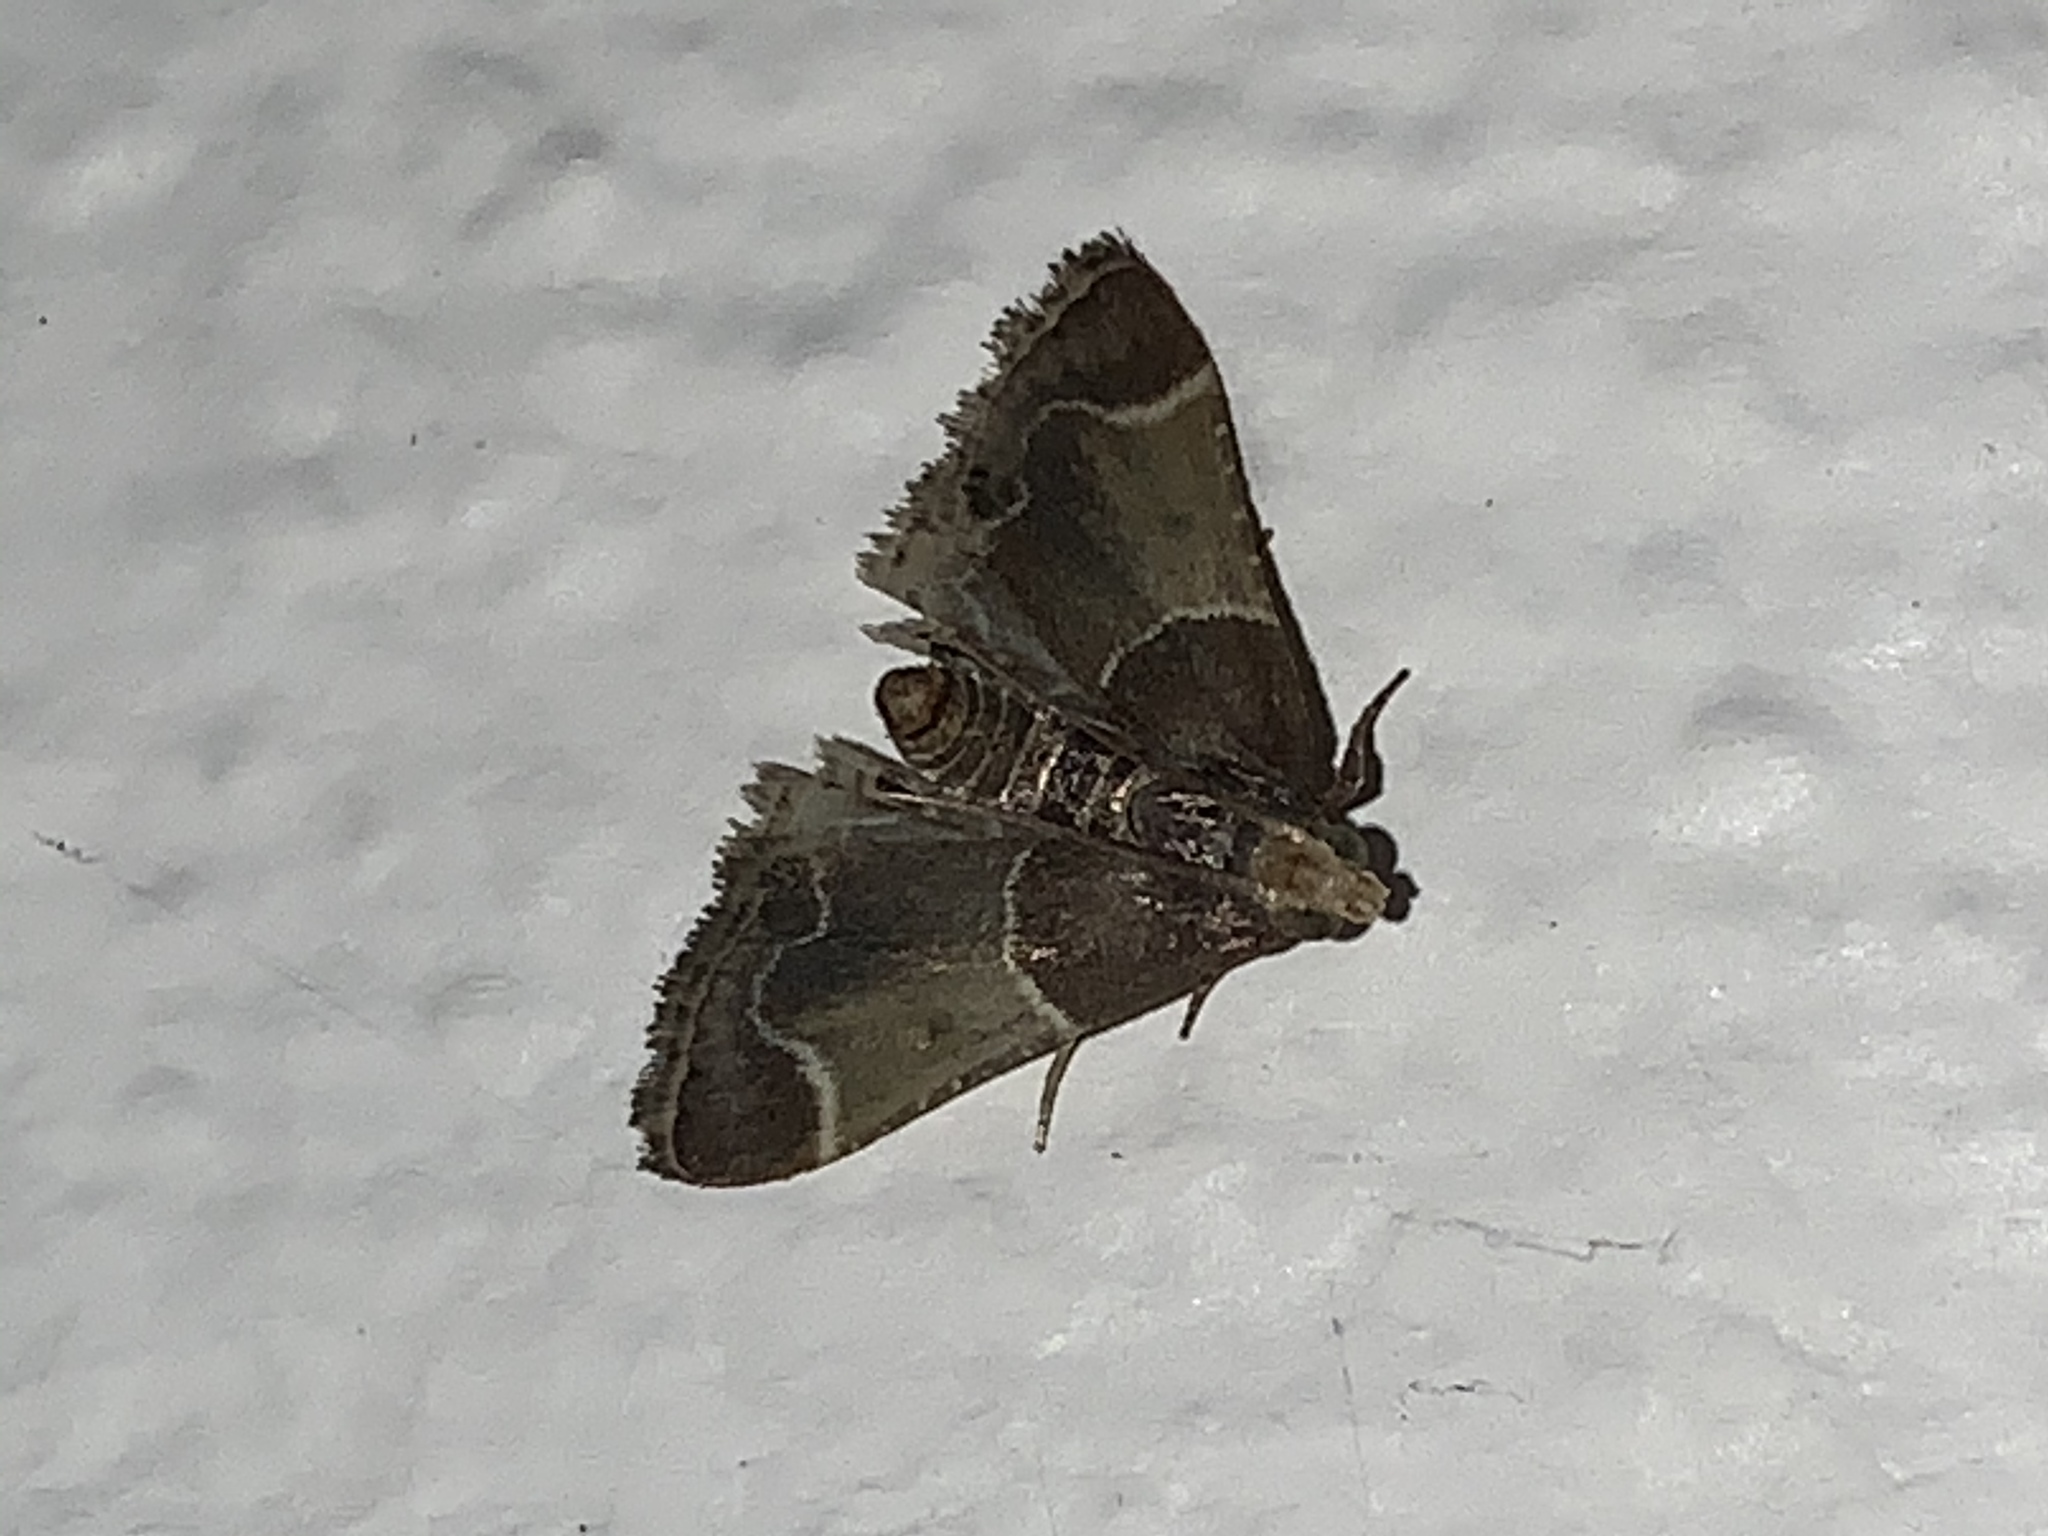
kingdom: Animalia
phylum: Arthropoda
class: Insecta
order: Lepidoptera
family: Pyralidae
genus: Pyralis
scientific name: Pyralis farinalis
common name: Meal moth
